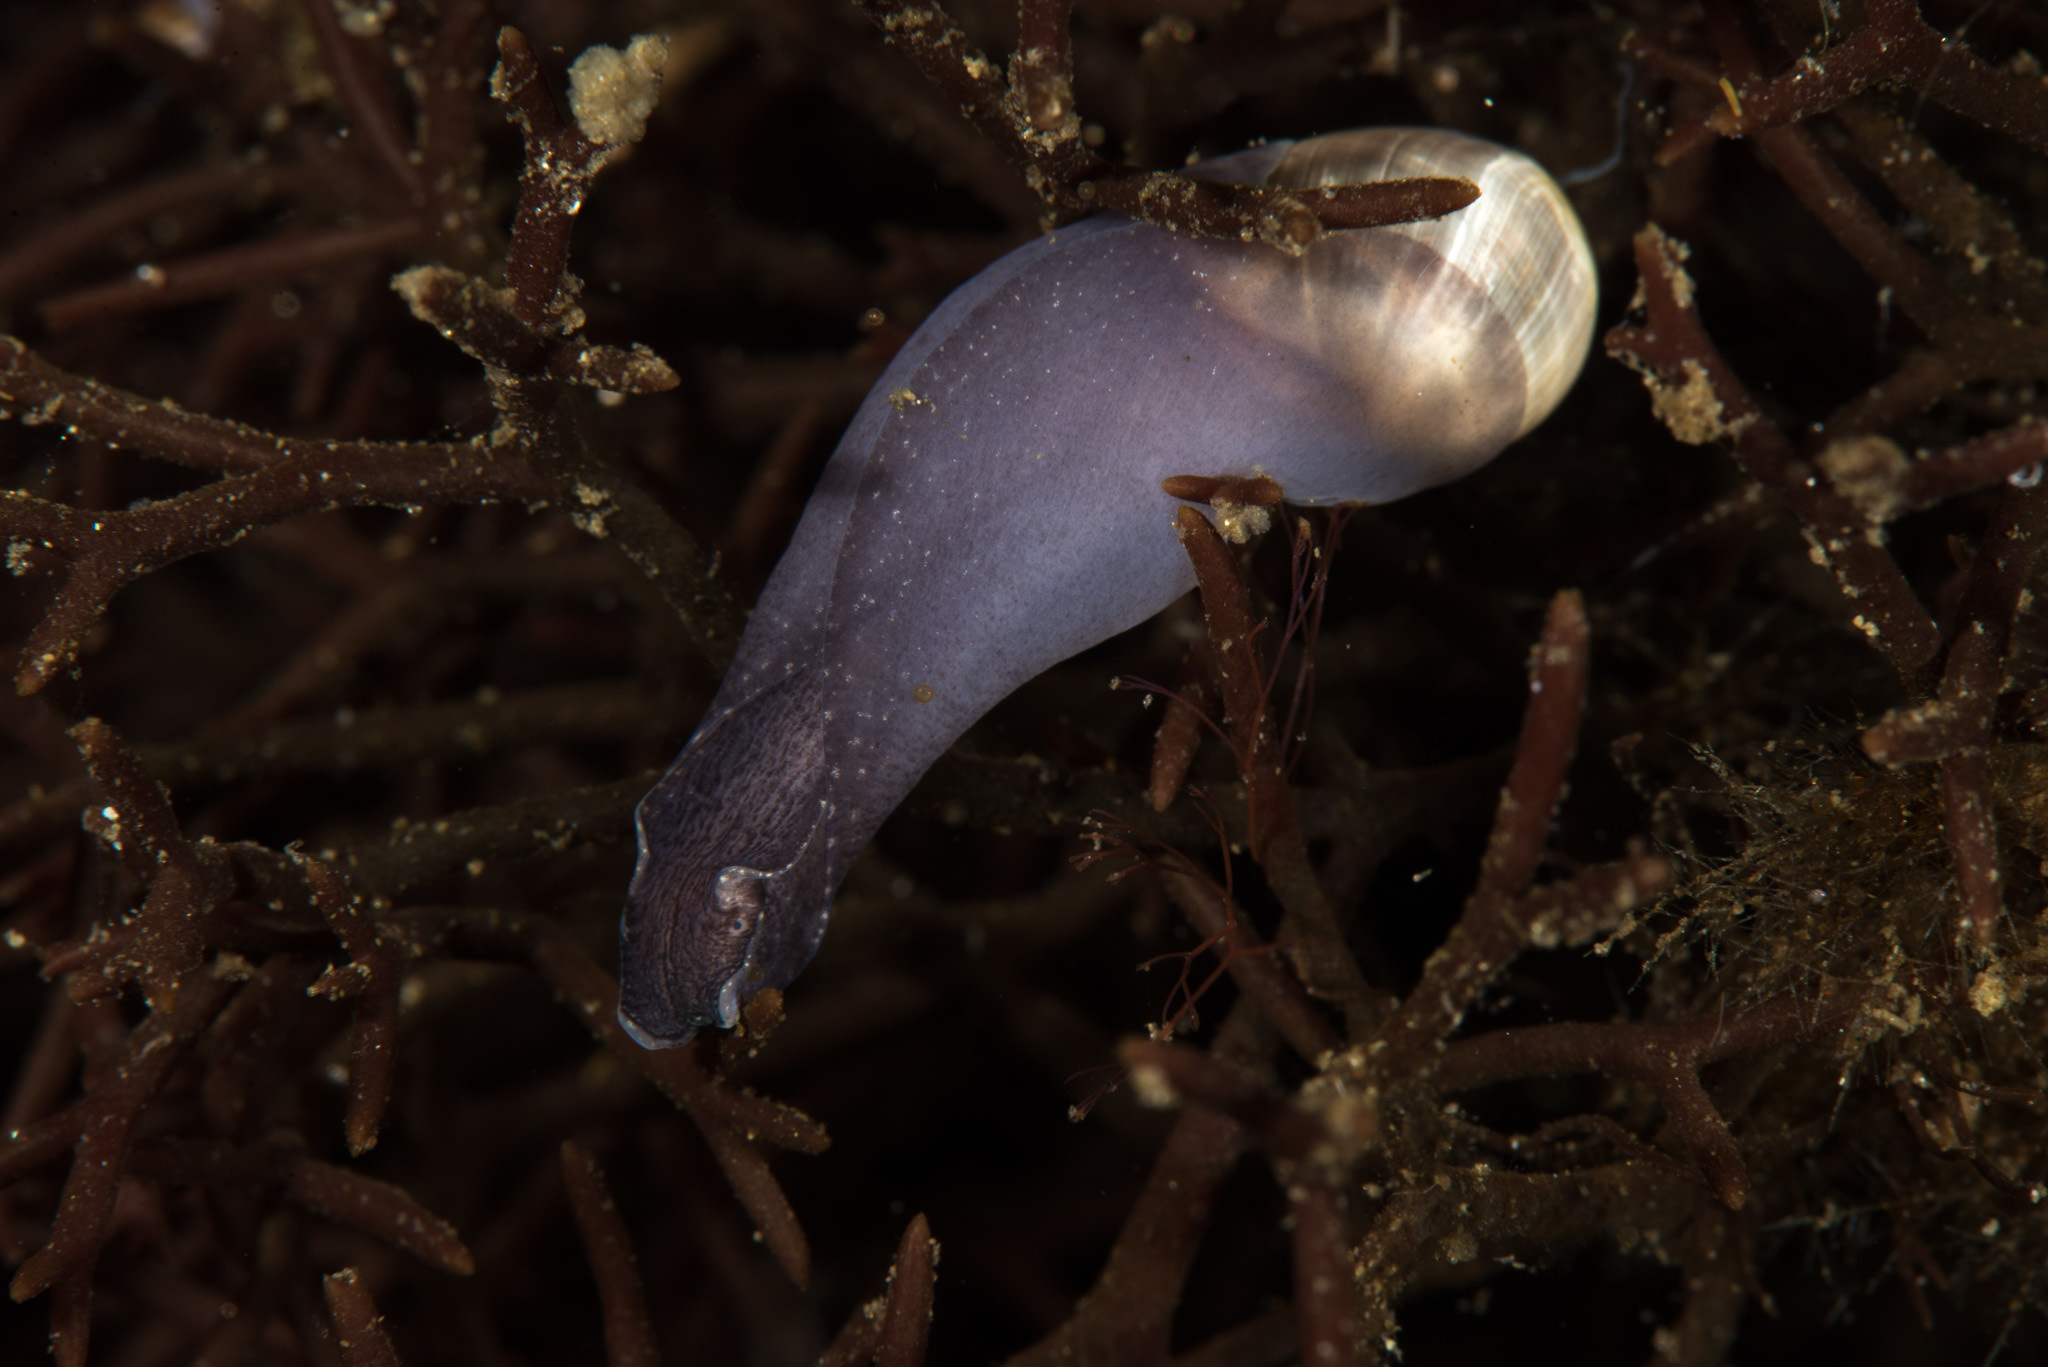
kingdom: Animalia
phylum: Mollusca
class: Gastropoda
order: Aplysiida
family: Akeridae
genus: Akera
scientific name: Akera bullata
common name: Common bubble snail
